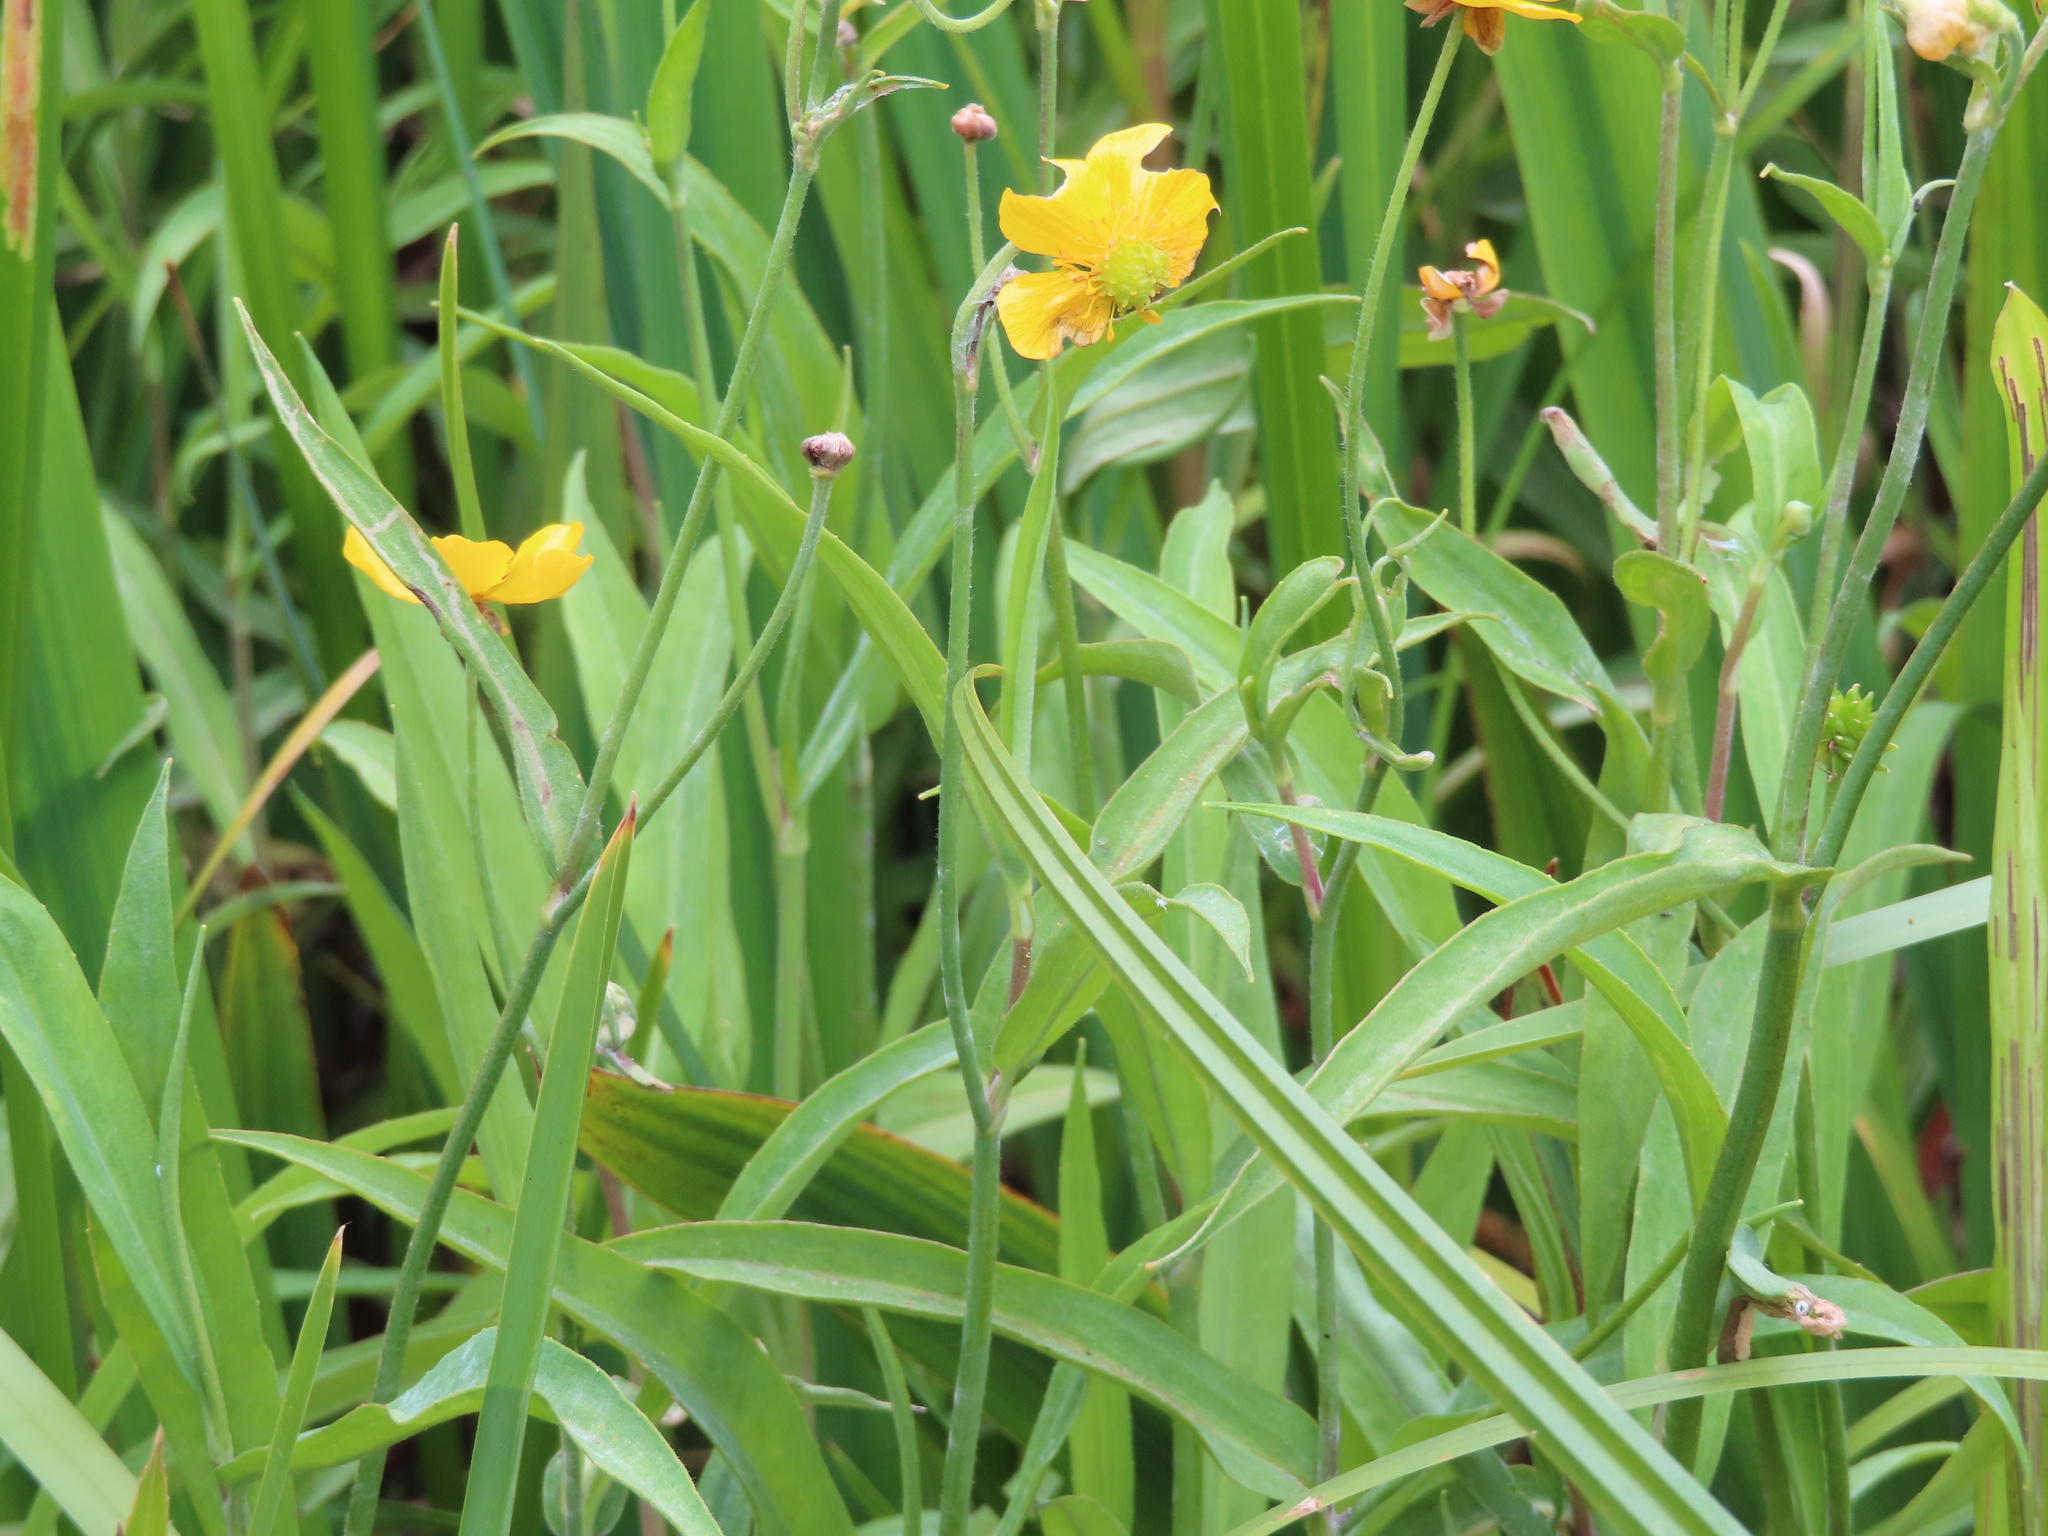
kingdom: Plantae
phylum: Tracheophyta
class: Magnoliopsida
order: Ranunculales
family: Ranunculaceae
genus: Ranunculus
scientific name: Ranunculus lingua
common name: Greater spearwort
